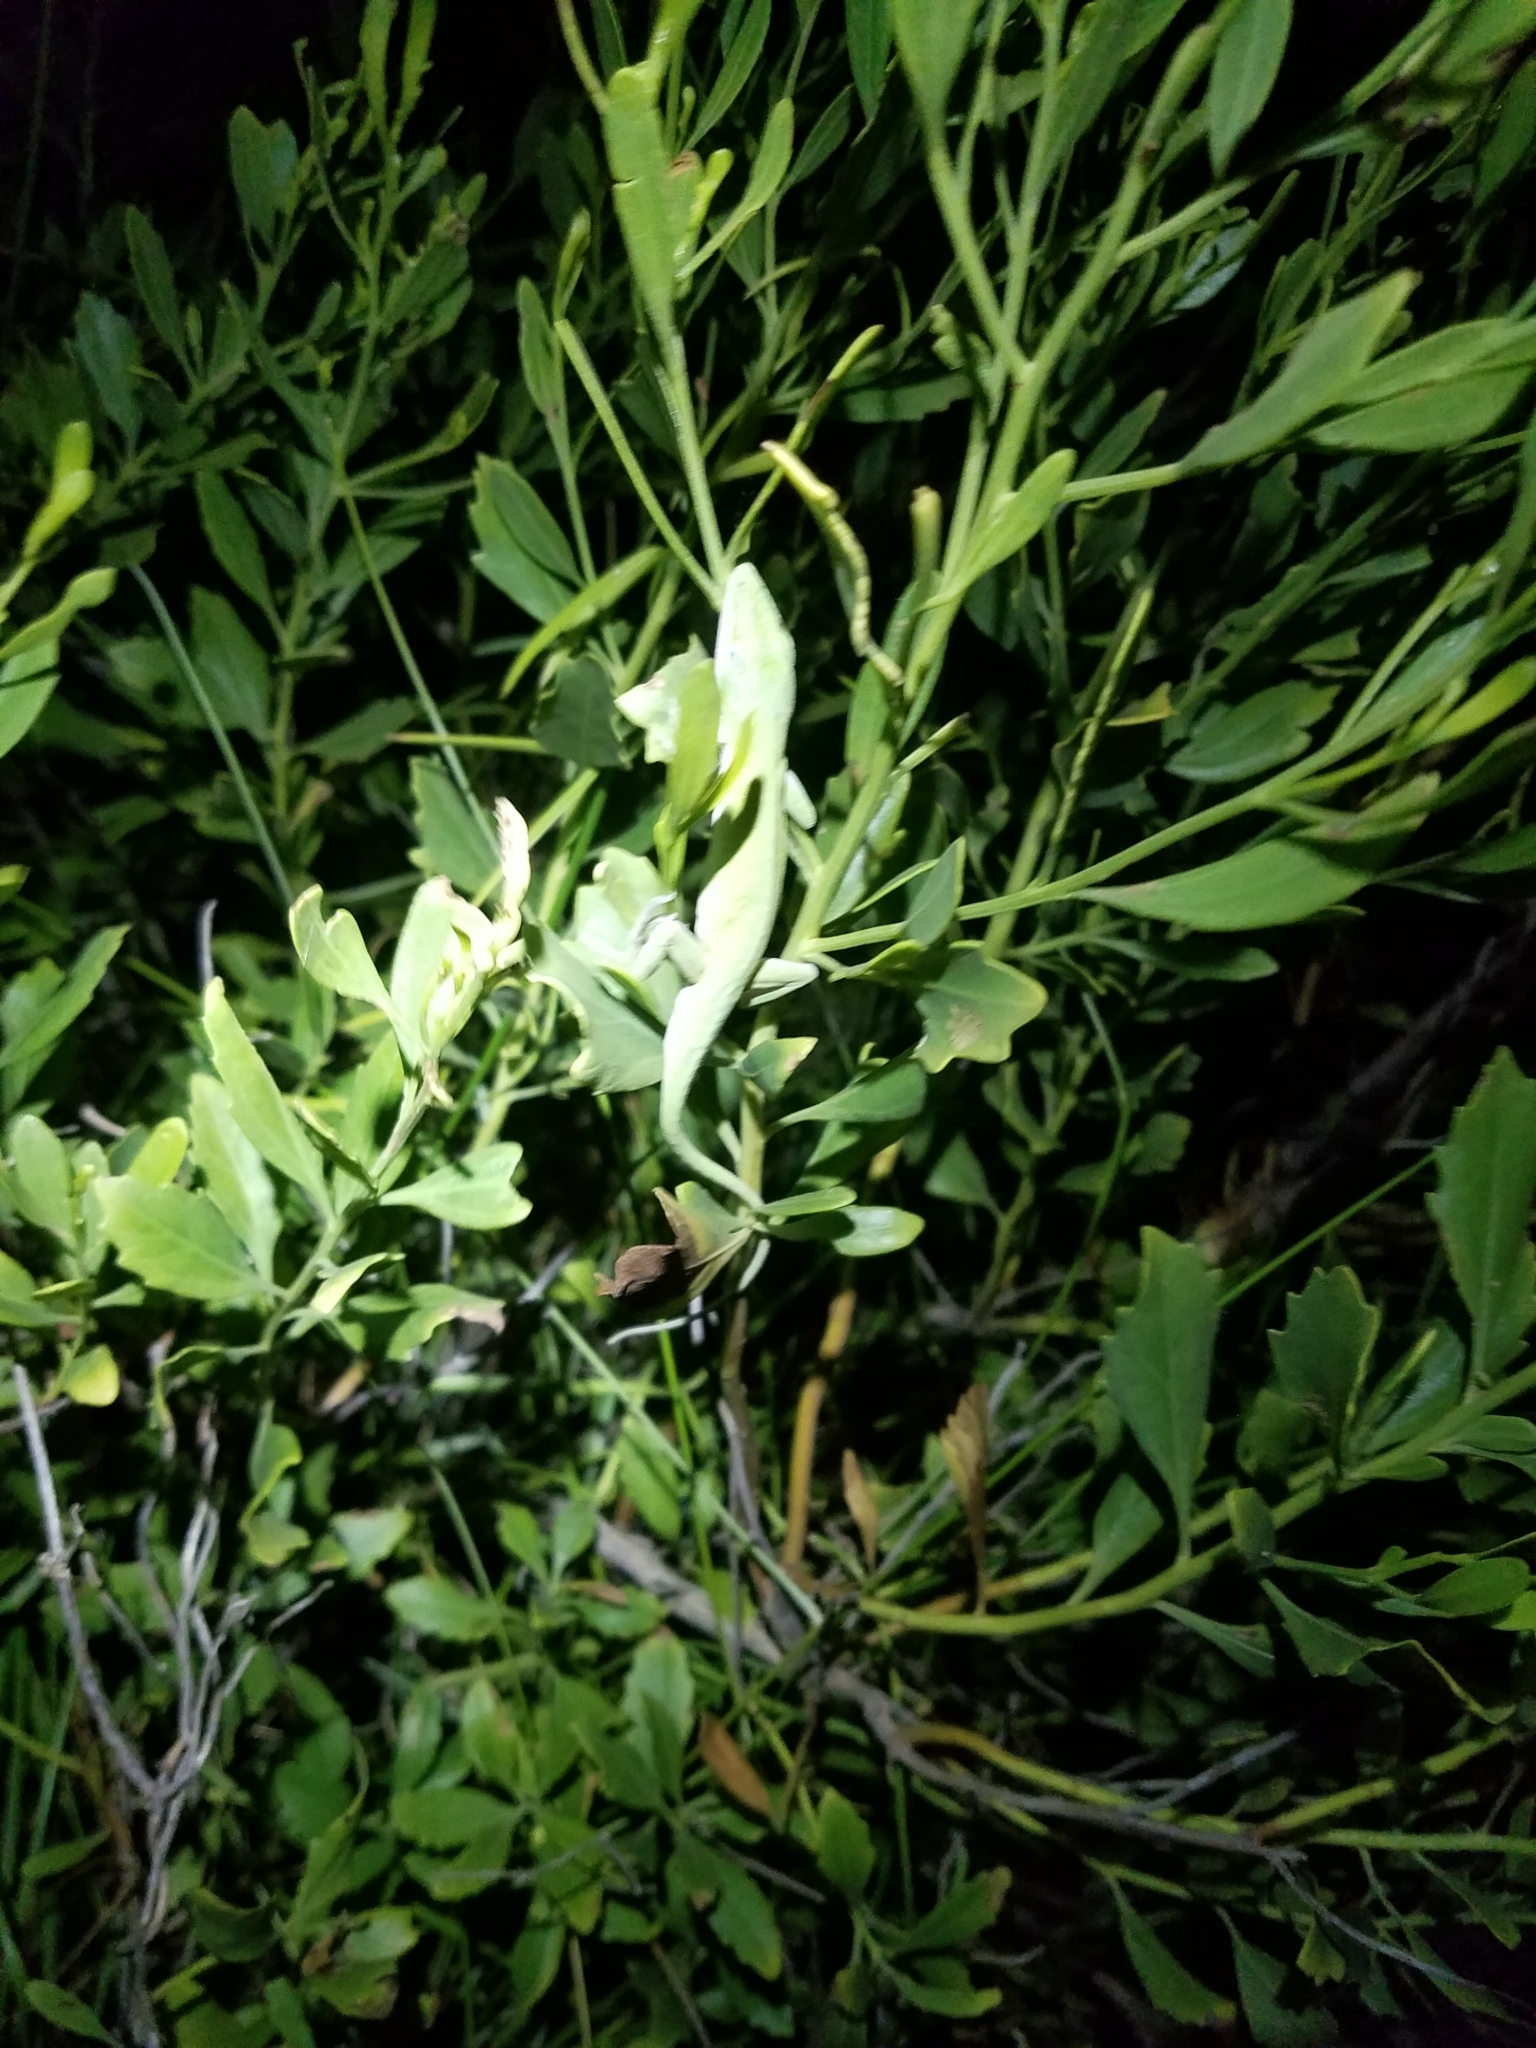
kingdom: Animalia
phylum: Chordata
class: Squamata
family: Dactyloidae
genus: Anolis
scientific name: Anolis carolinensis
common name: Green anole
